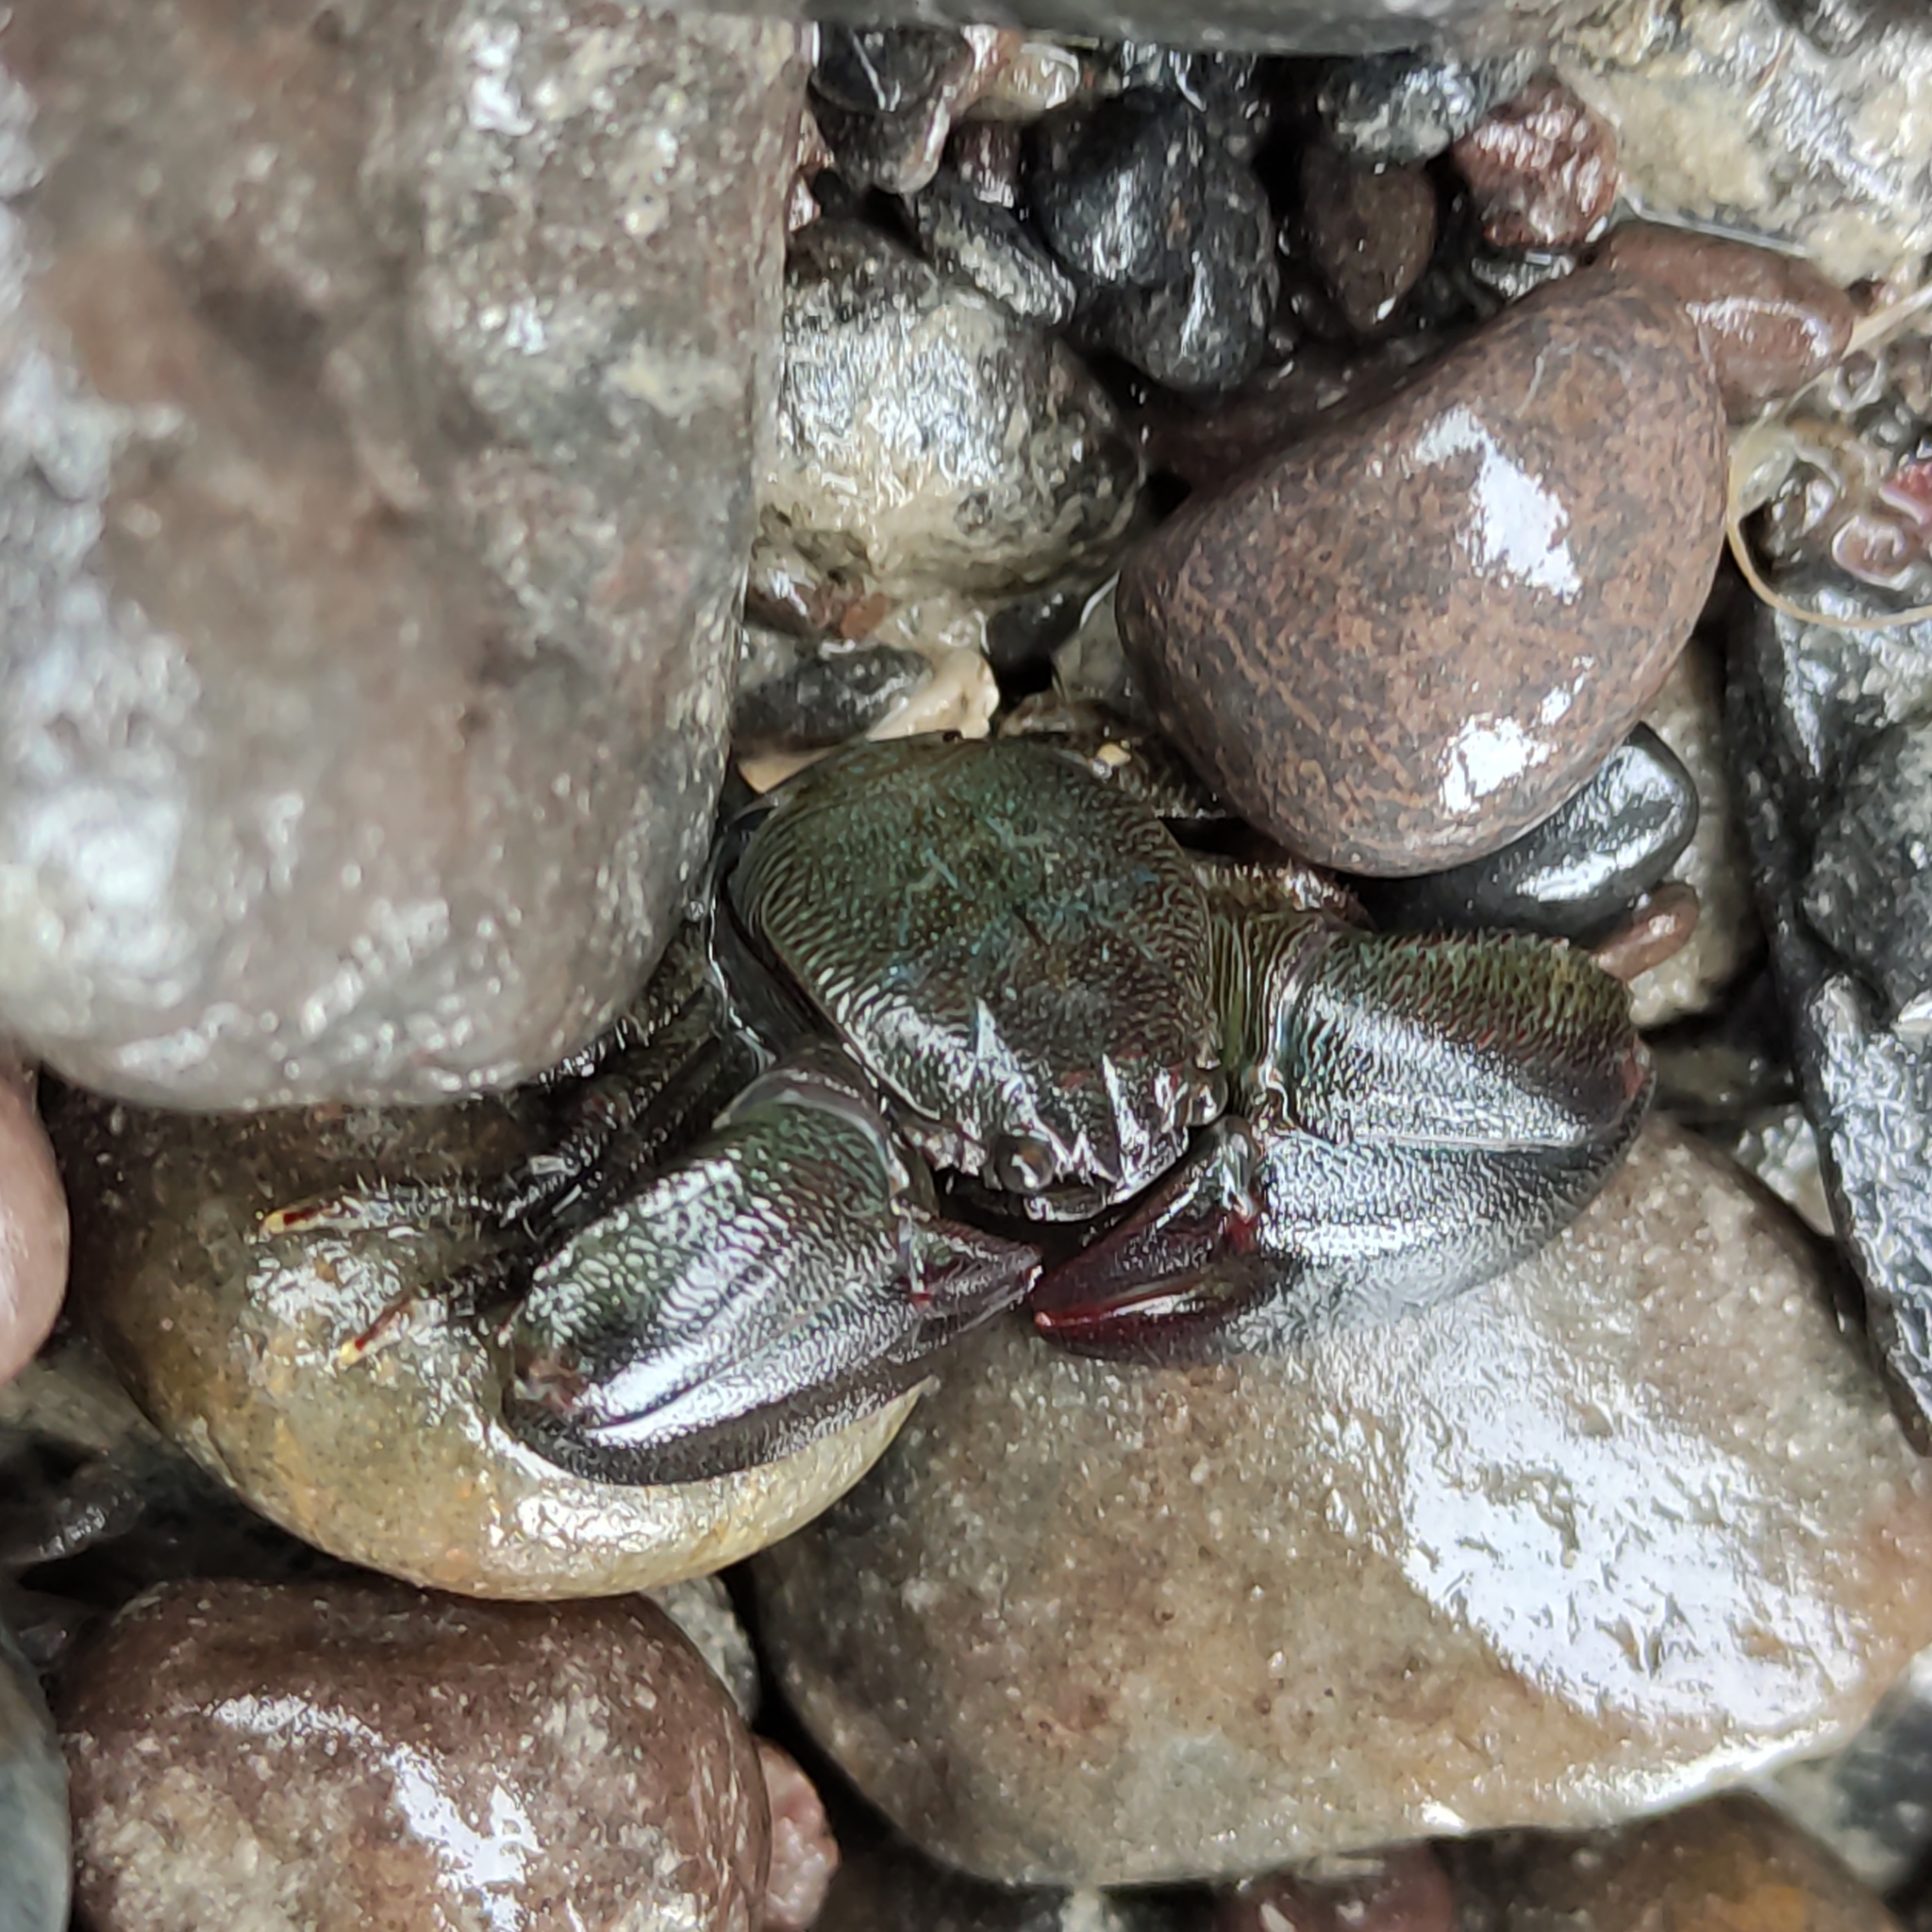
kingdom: Animalia
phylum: Arthropoda
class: Malacostraca
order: Decapoda
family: Porcellanidae
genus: Petrolisthes
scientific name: Petrolisthes elongatus
